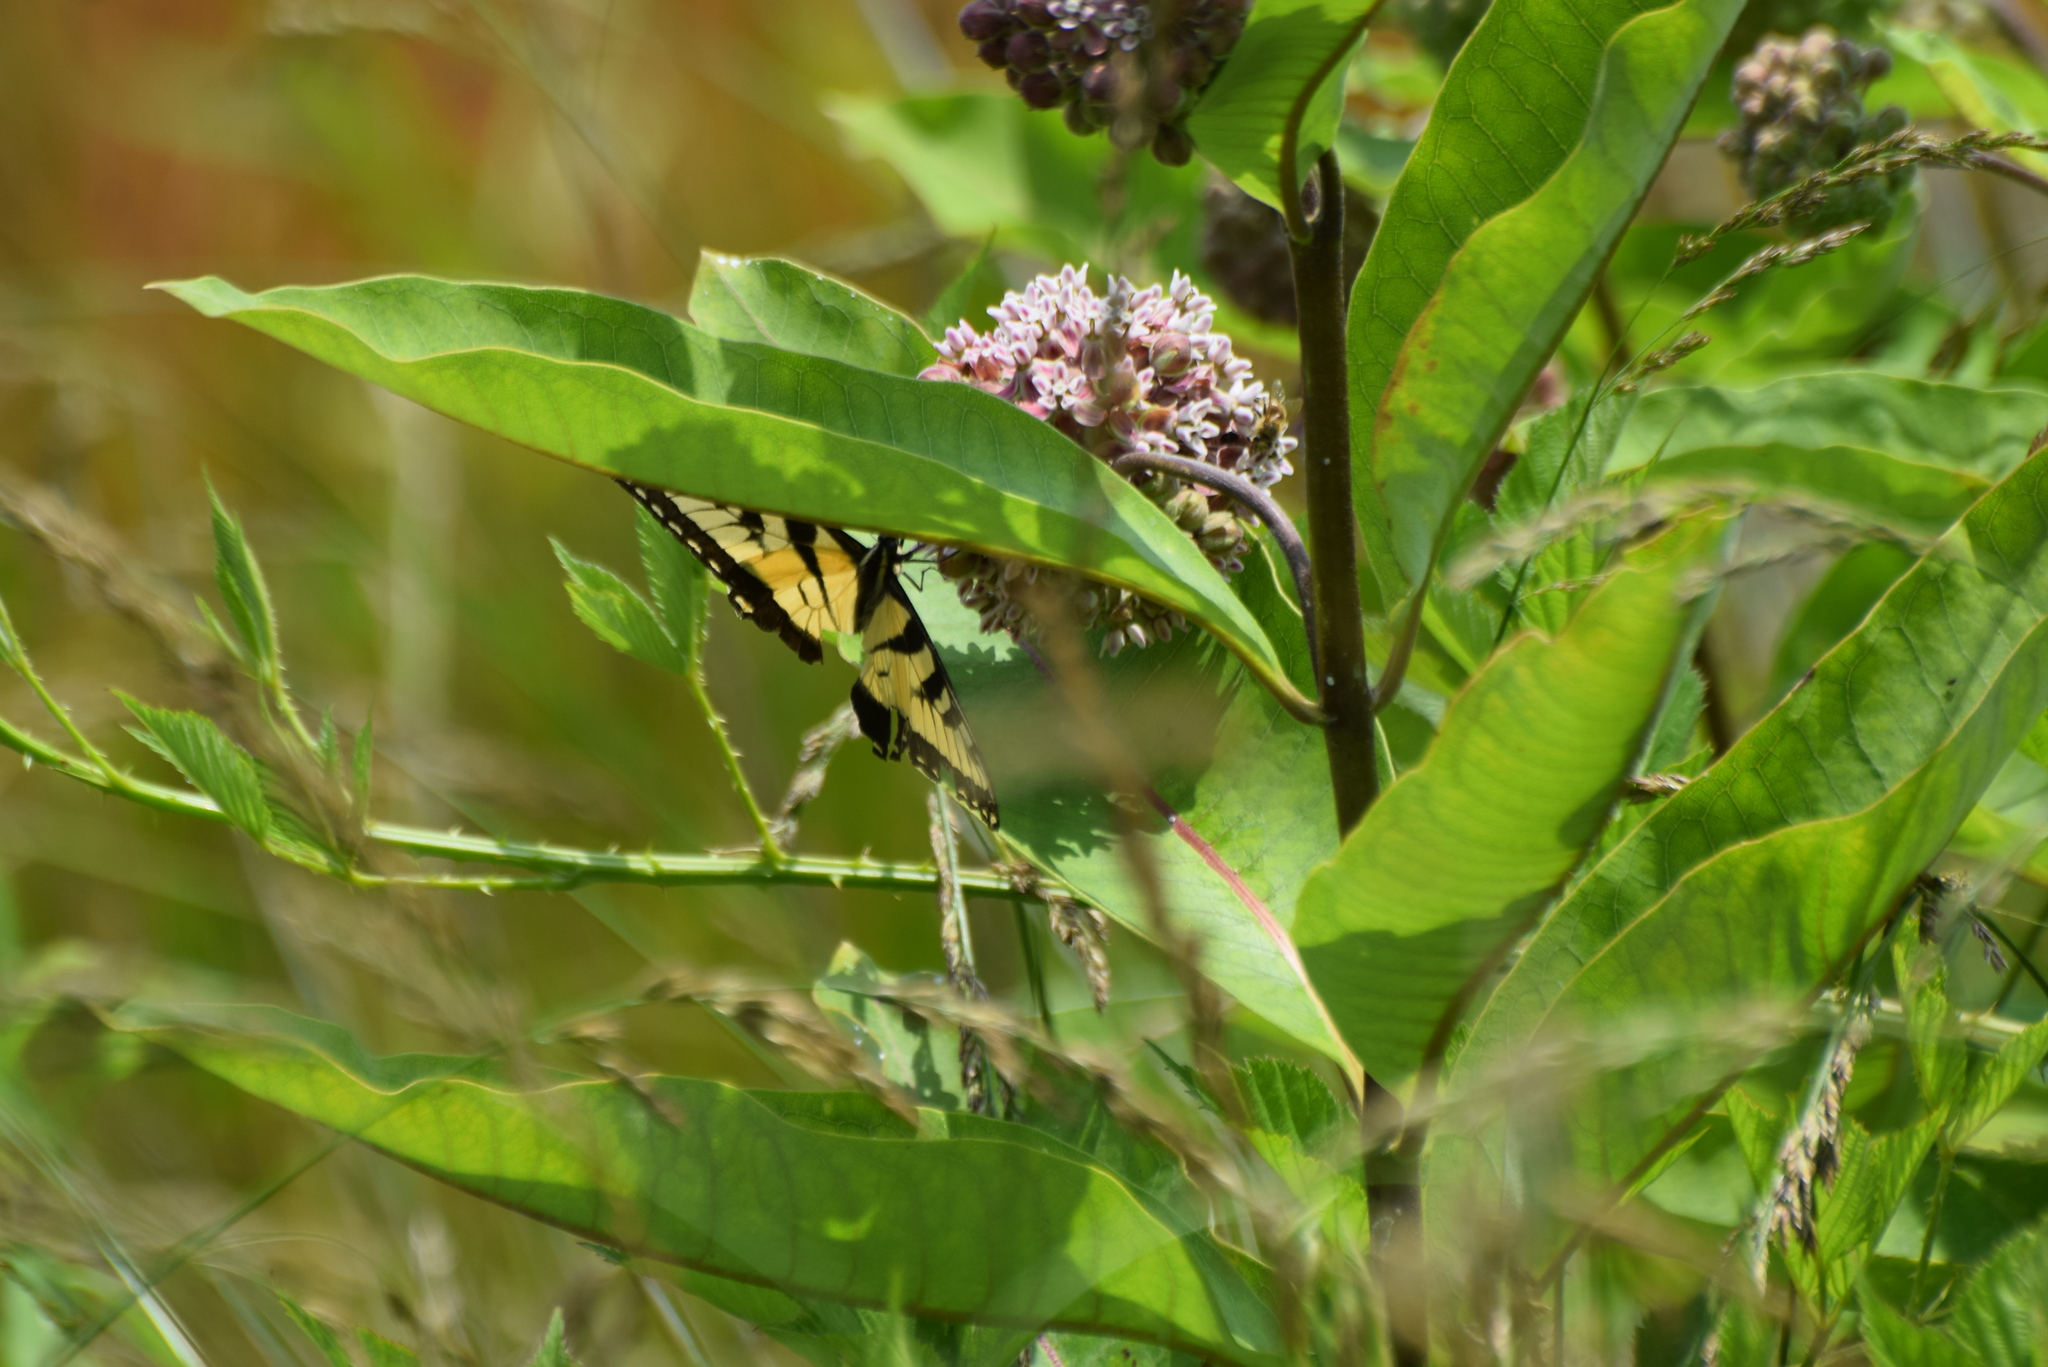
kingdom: Animalia
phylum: Arthropoda
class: Insecta
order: Lepidoptera
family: Papilionidae
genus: Papilio
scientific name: Papilio glaucus
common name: Tiger swallowtail
